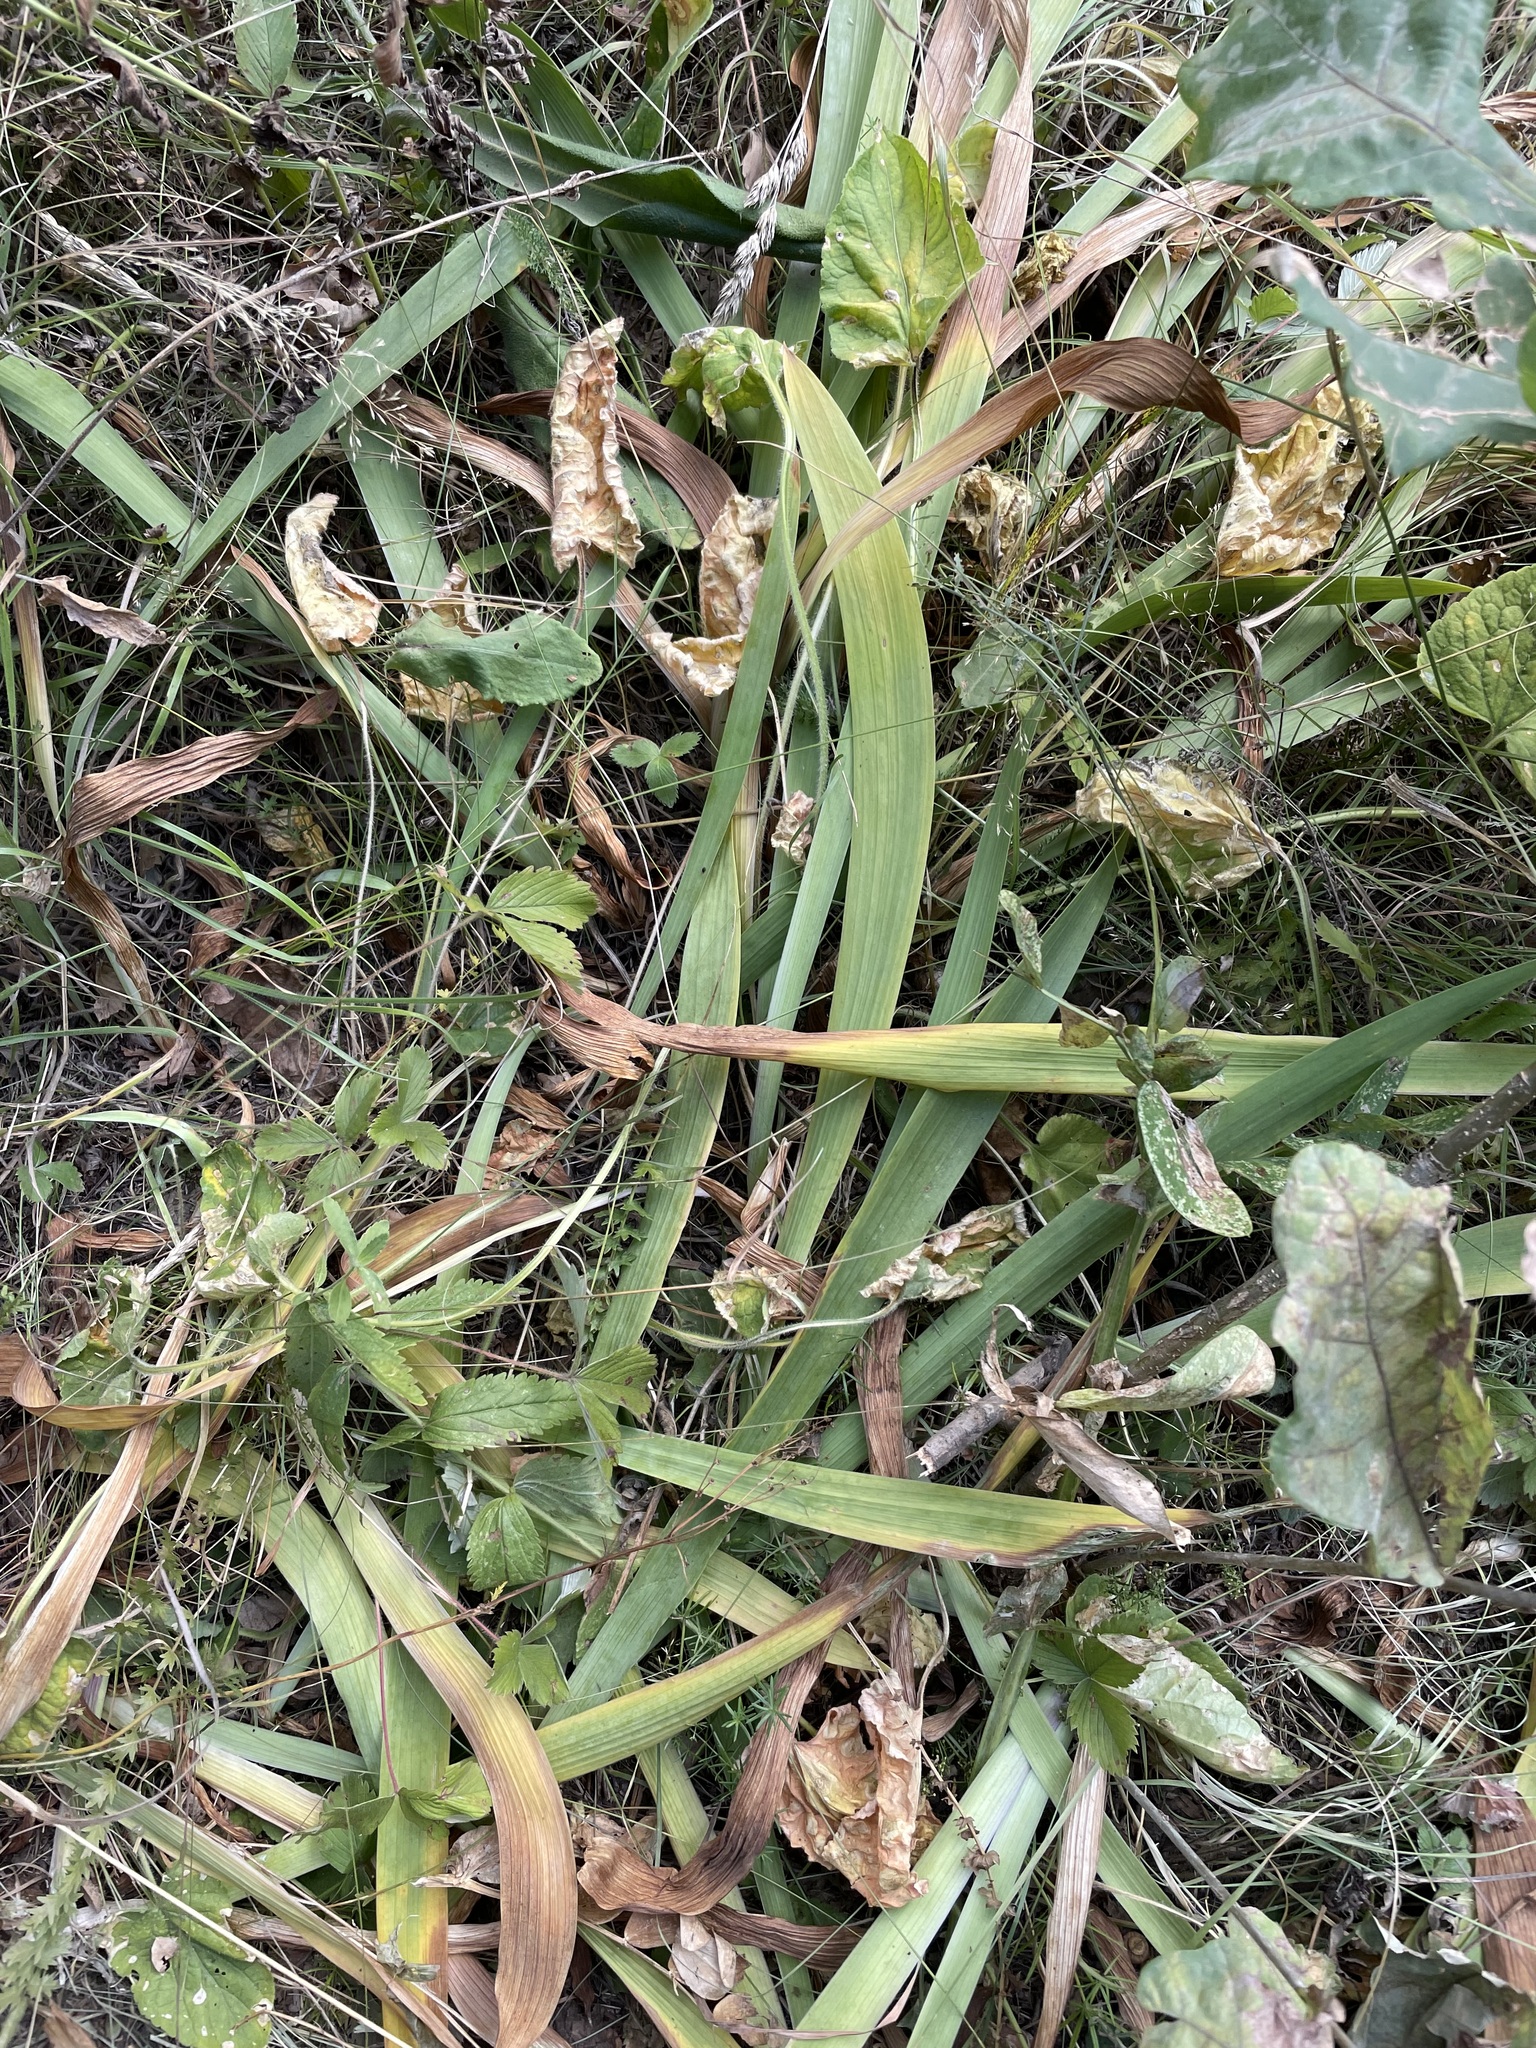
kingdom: Plantae
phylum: Tracheophyta
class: Liliopsida
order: Asparagales
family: Iridaceae
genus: Iris
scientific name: Iris aphylla
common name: Stool iris
